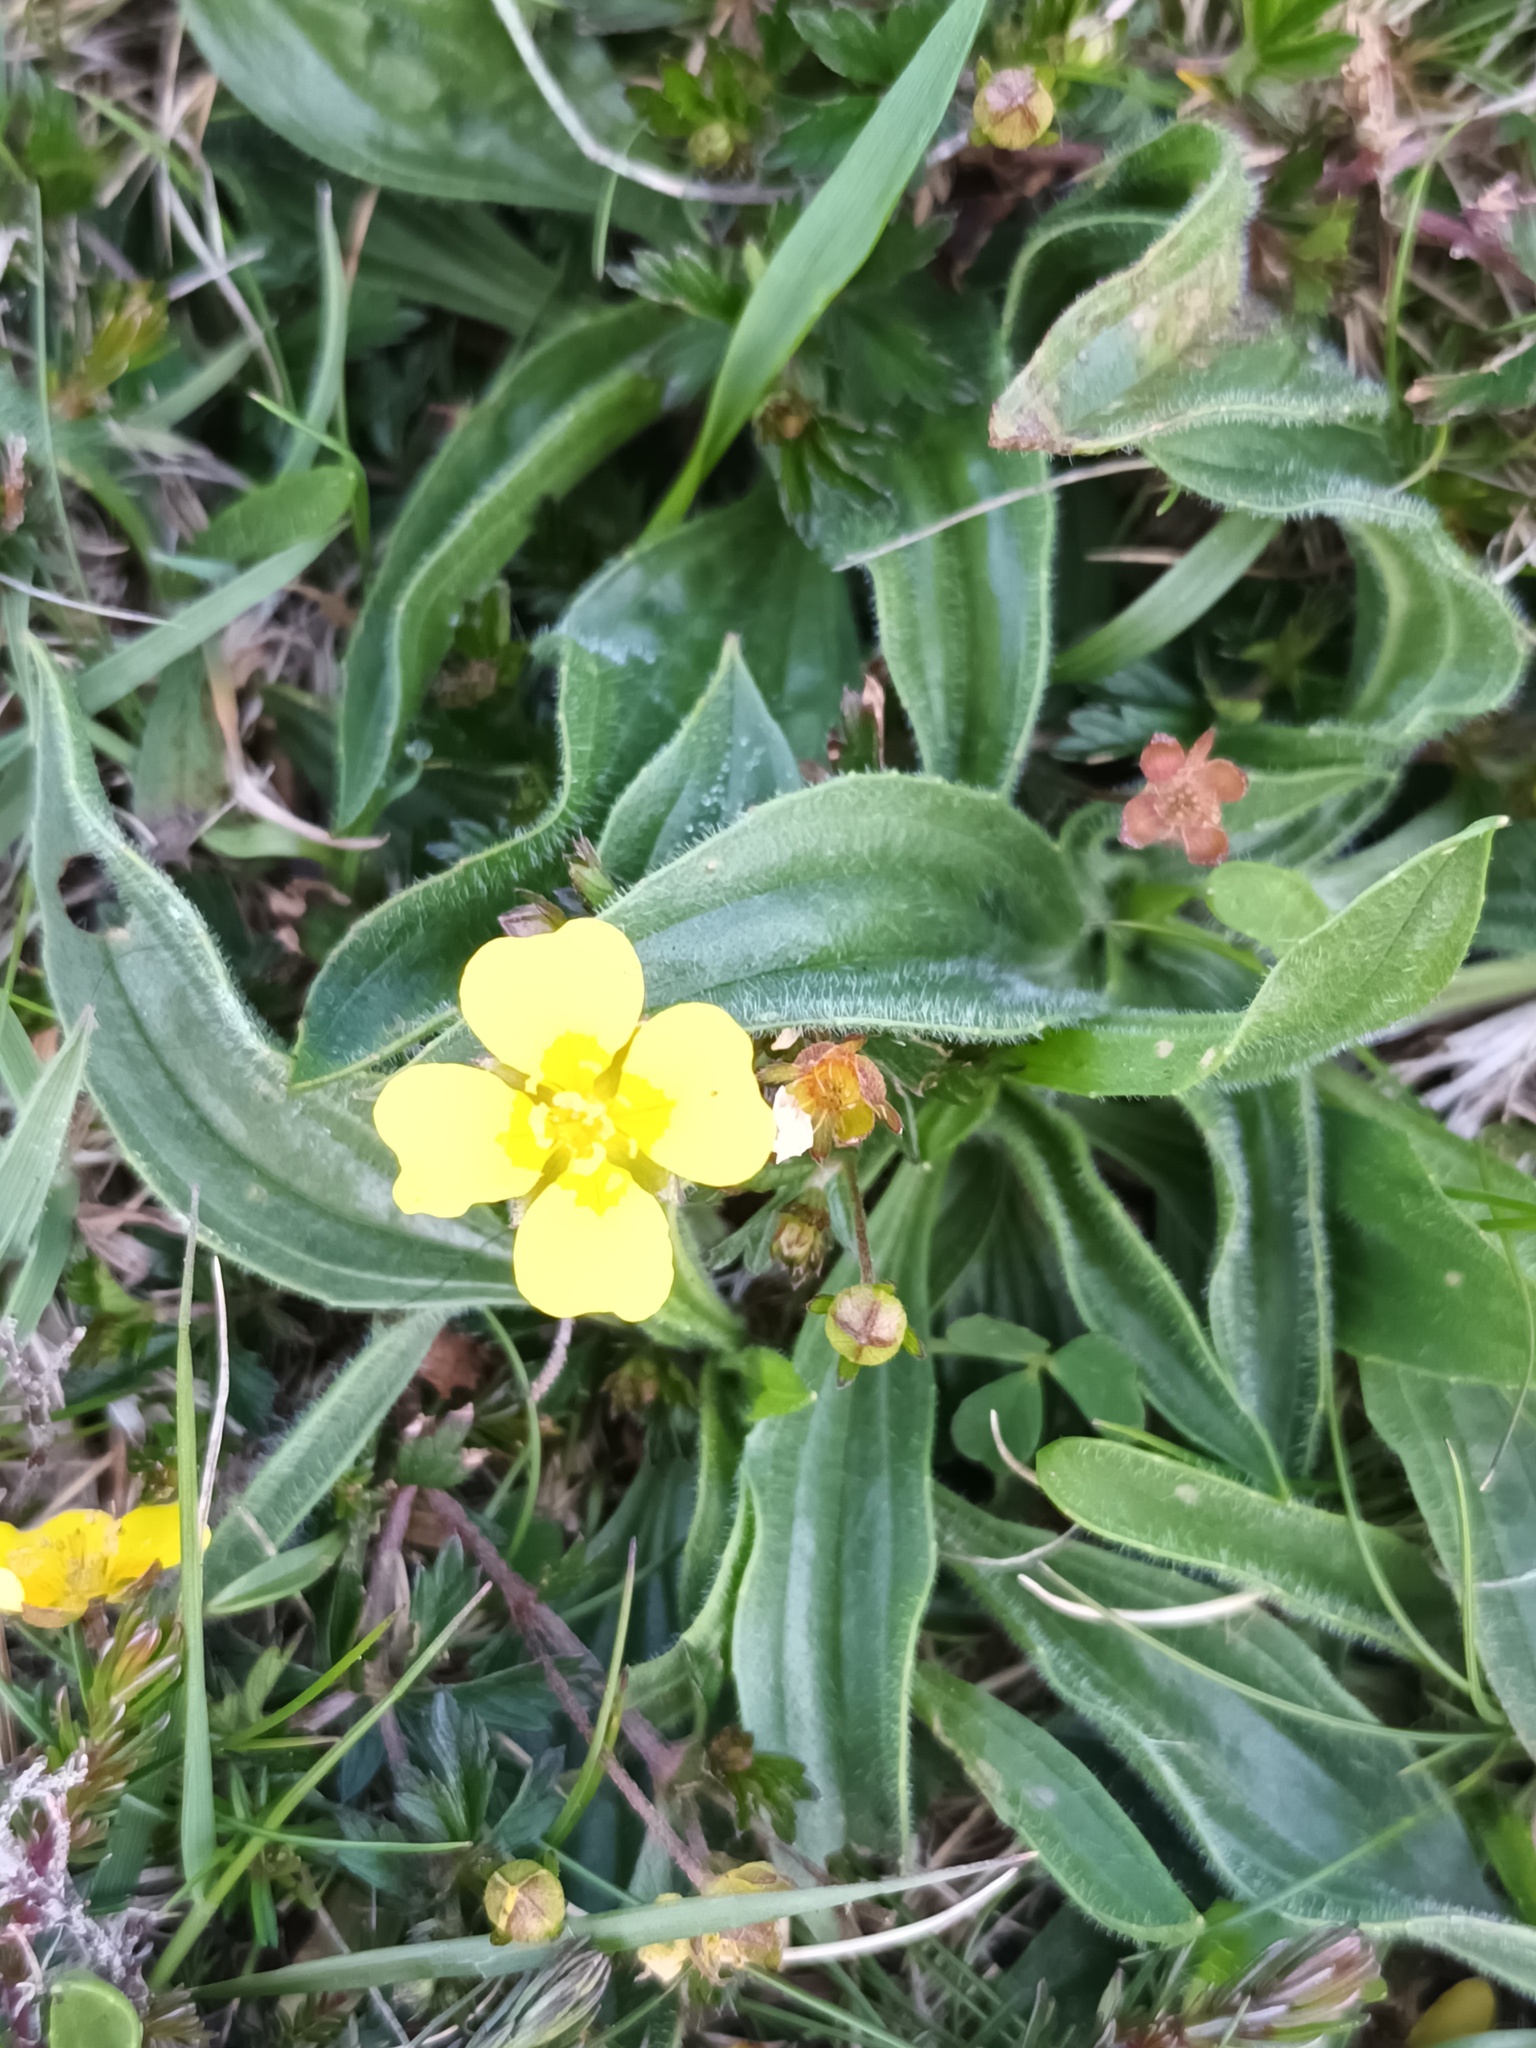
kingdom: Plantae
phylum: Tracheophyta
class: Magnoliopsida
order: Rosales
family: Rosaceae
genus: Potentilla
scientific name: Potentilla erecta
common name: Tormentil
